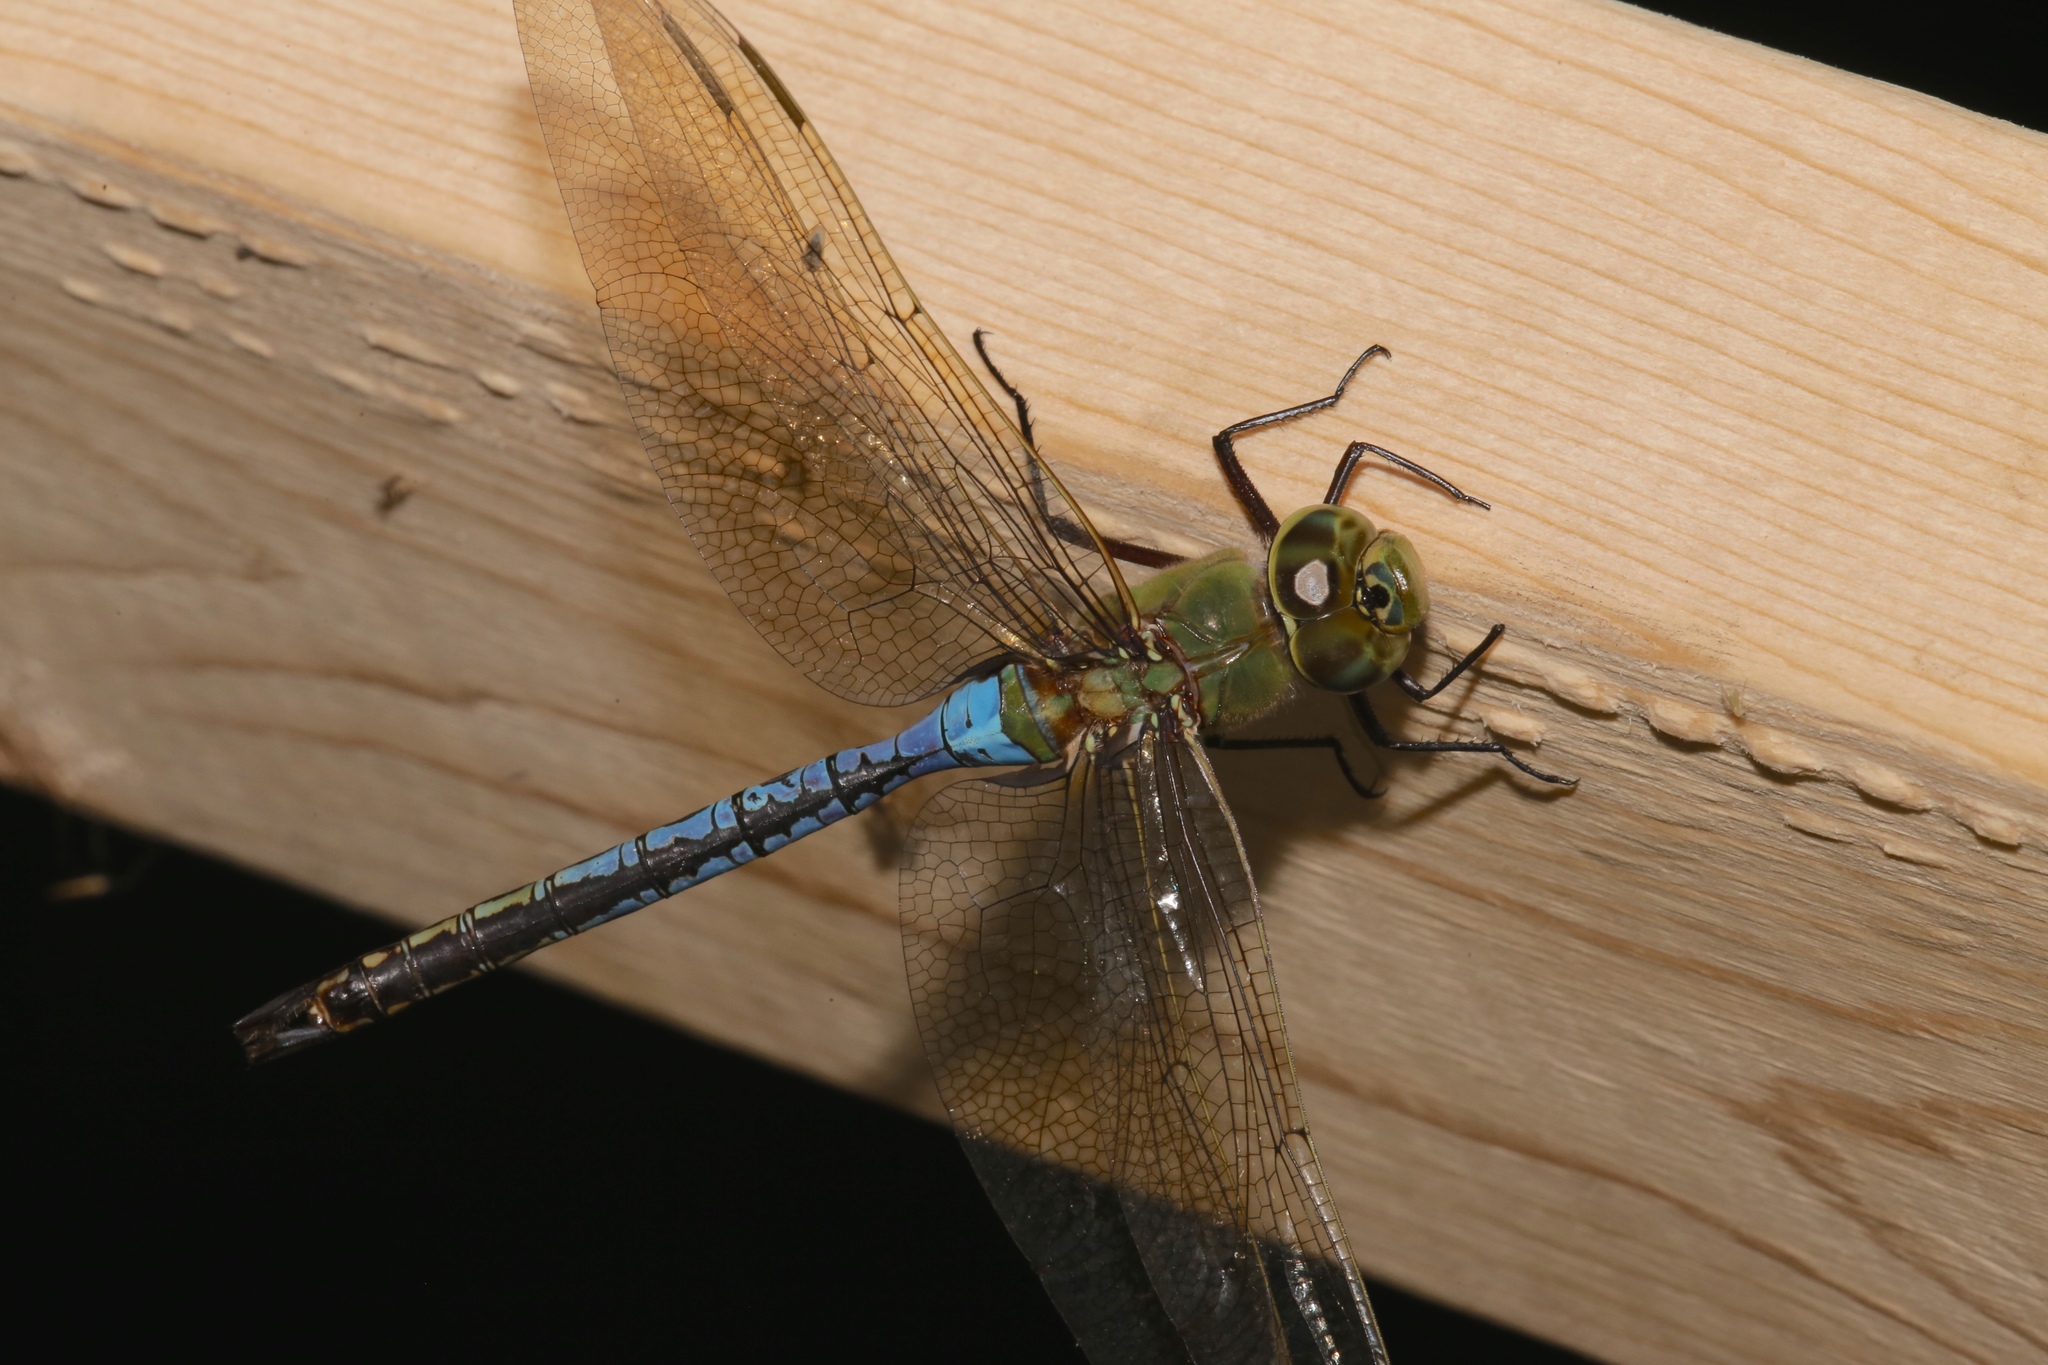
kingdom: Animalia
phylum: Arthropoda
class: Insecta
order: Odonata
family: Aeshnidae
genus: Anax
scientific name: Anax junius
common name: Common green darner
